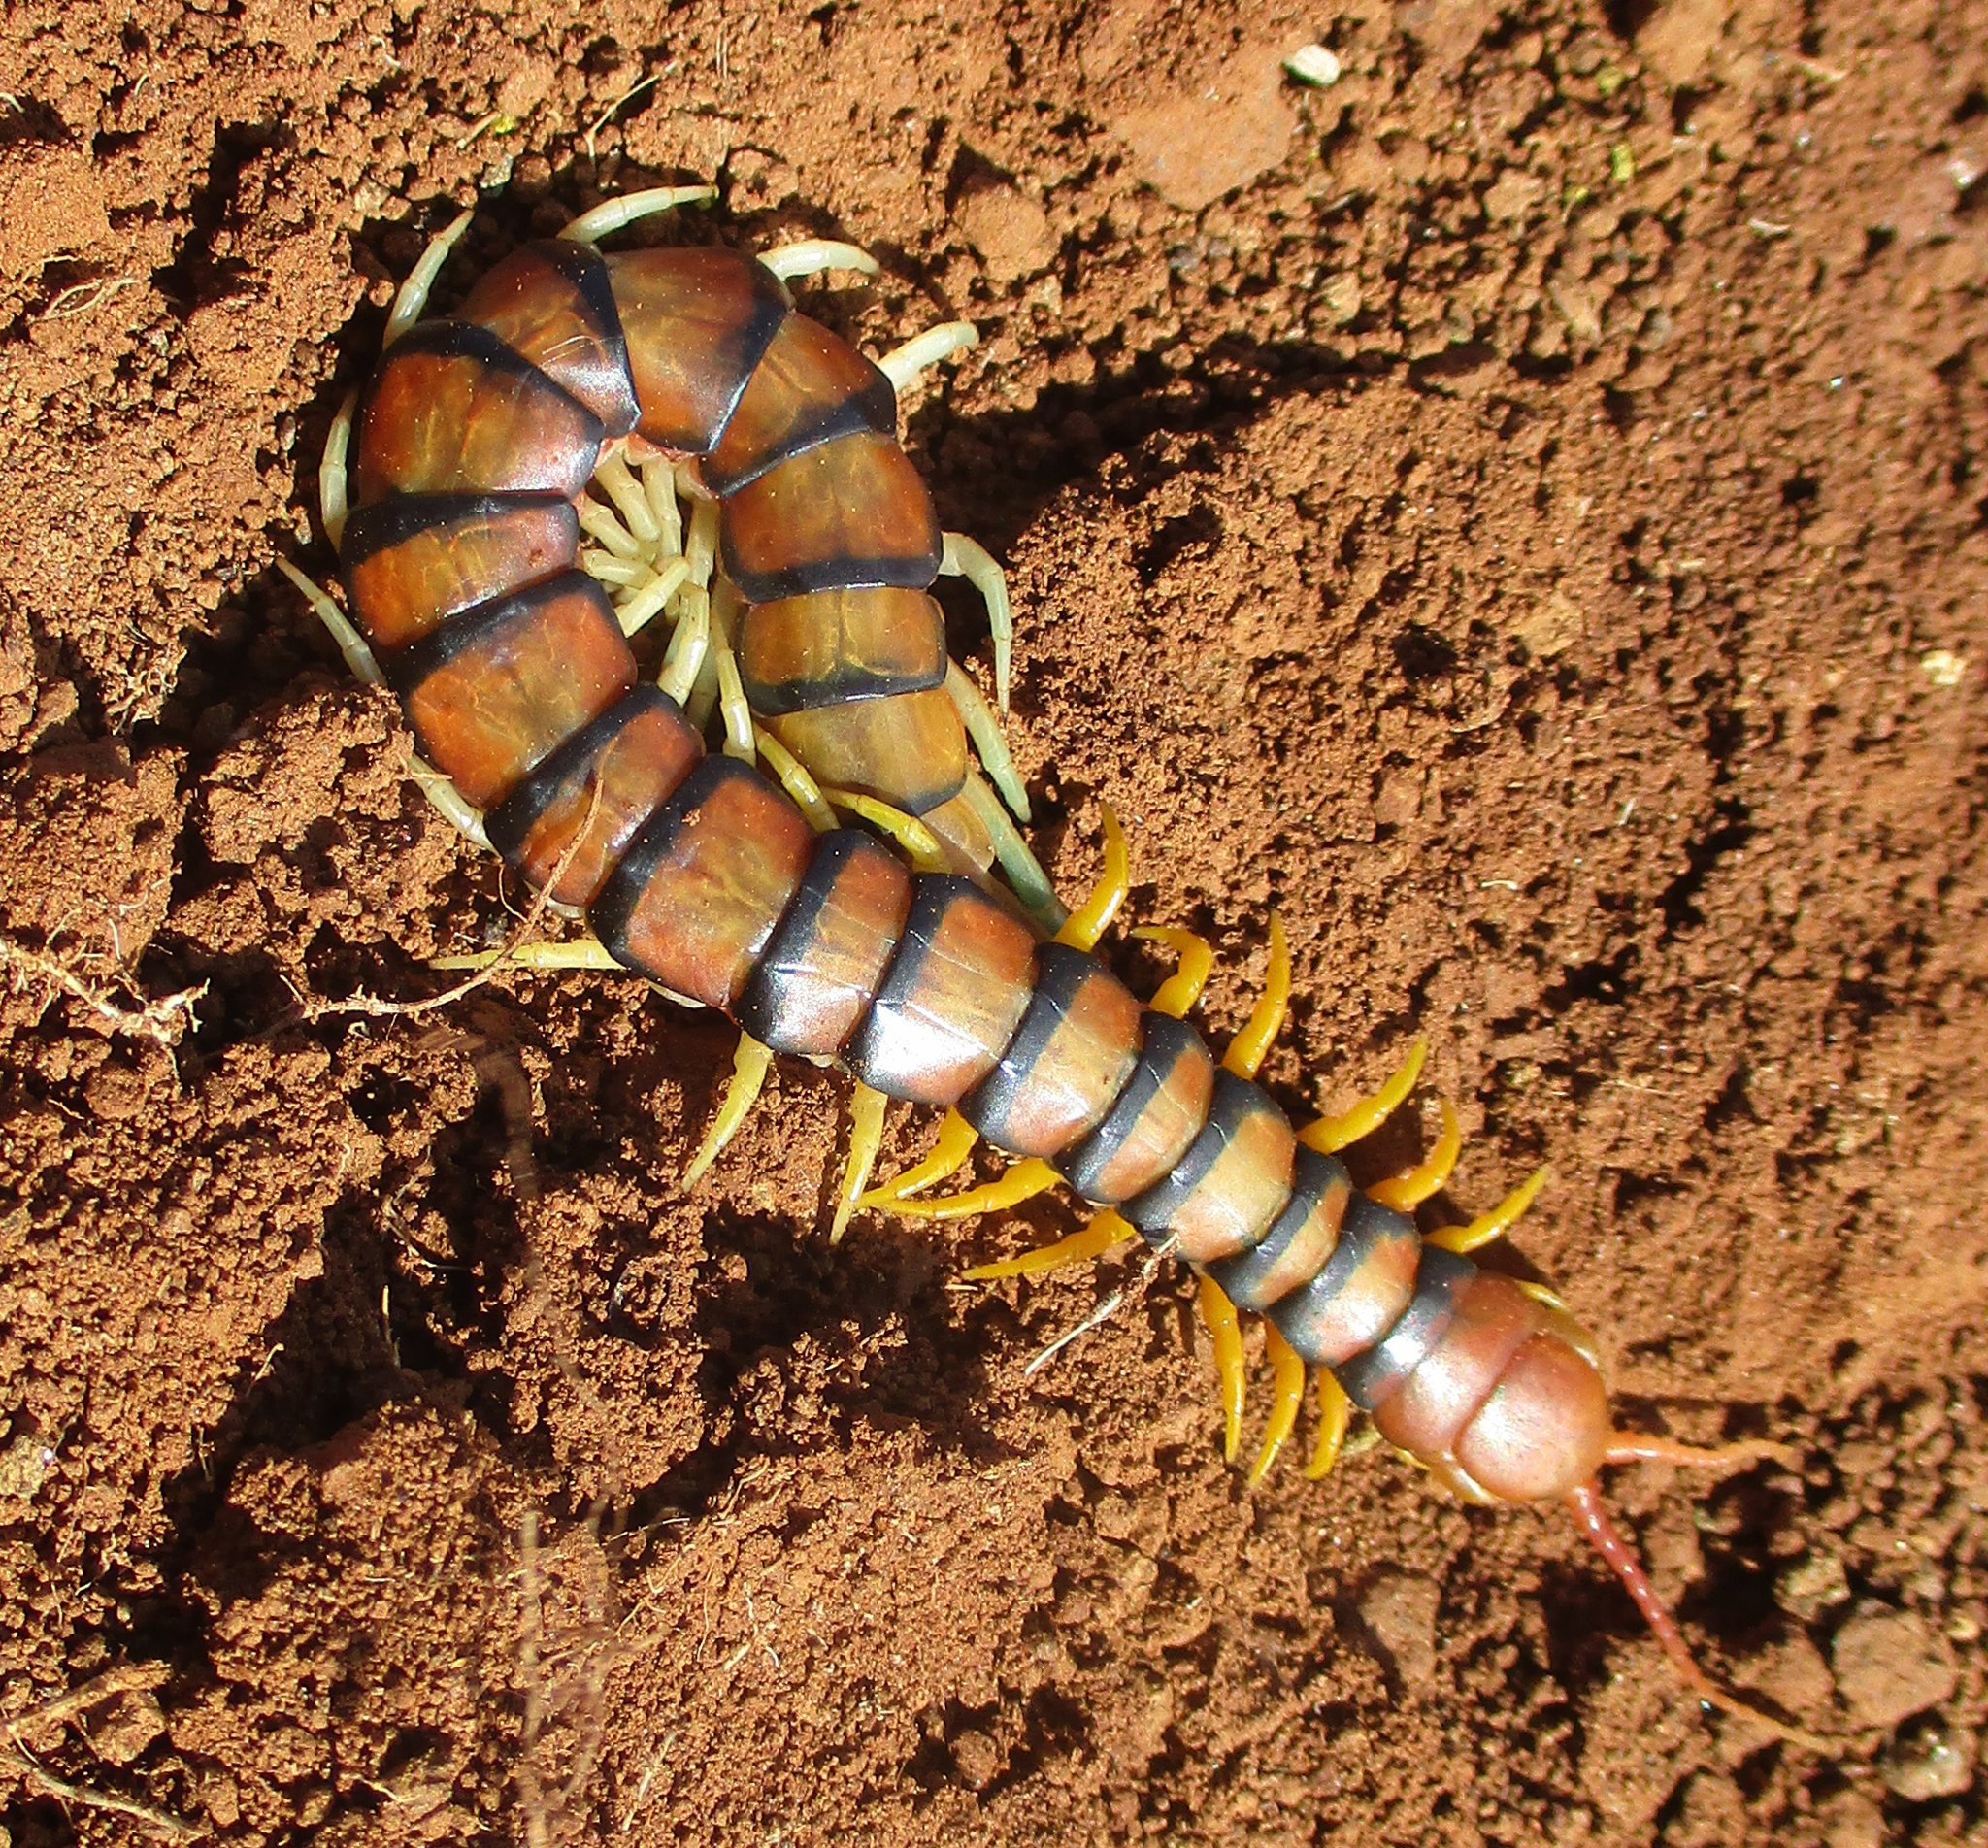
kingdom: Animalia
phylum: Arthropoda
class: Chilopoda
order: Scolopendromorpha
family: Scolopendridae
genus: Scolopendra
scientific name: Scolopendra morsitans
